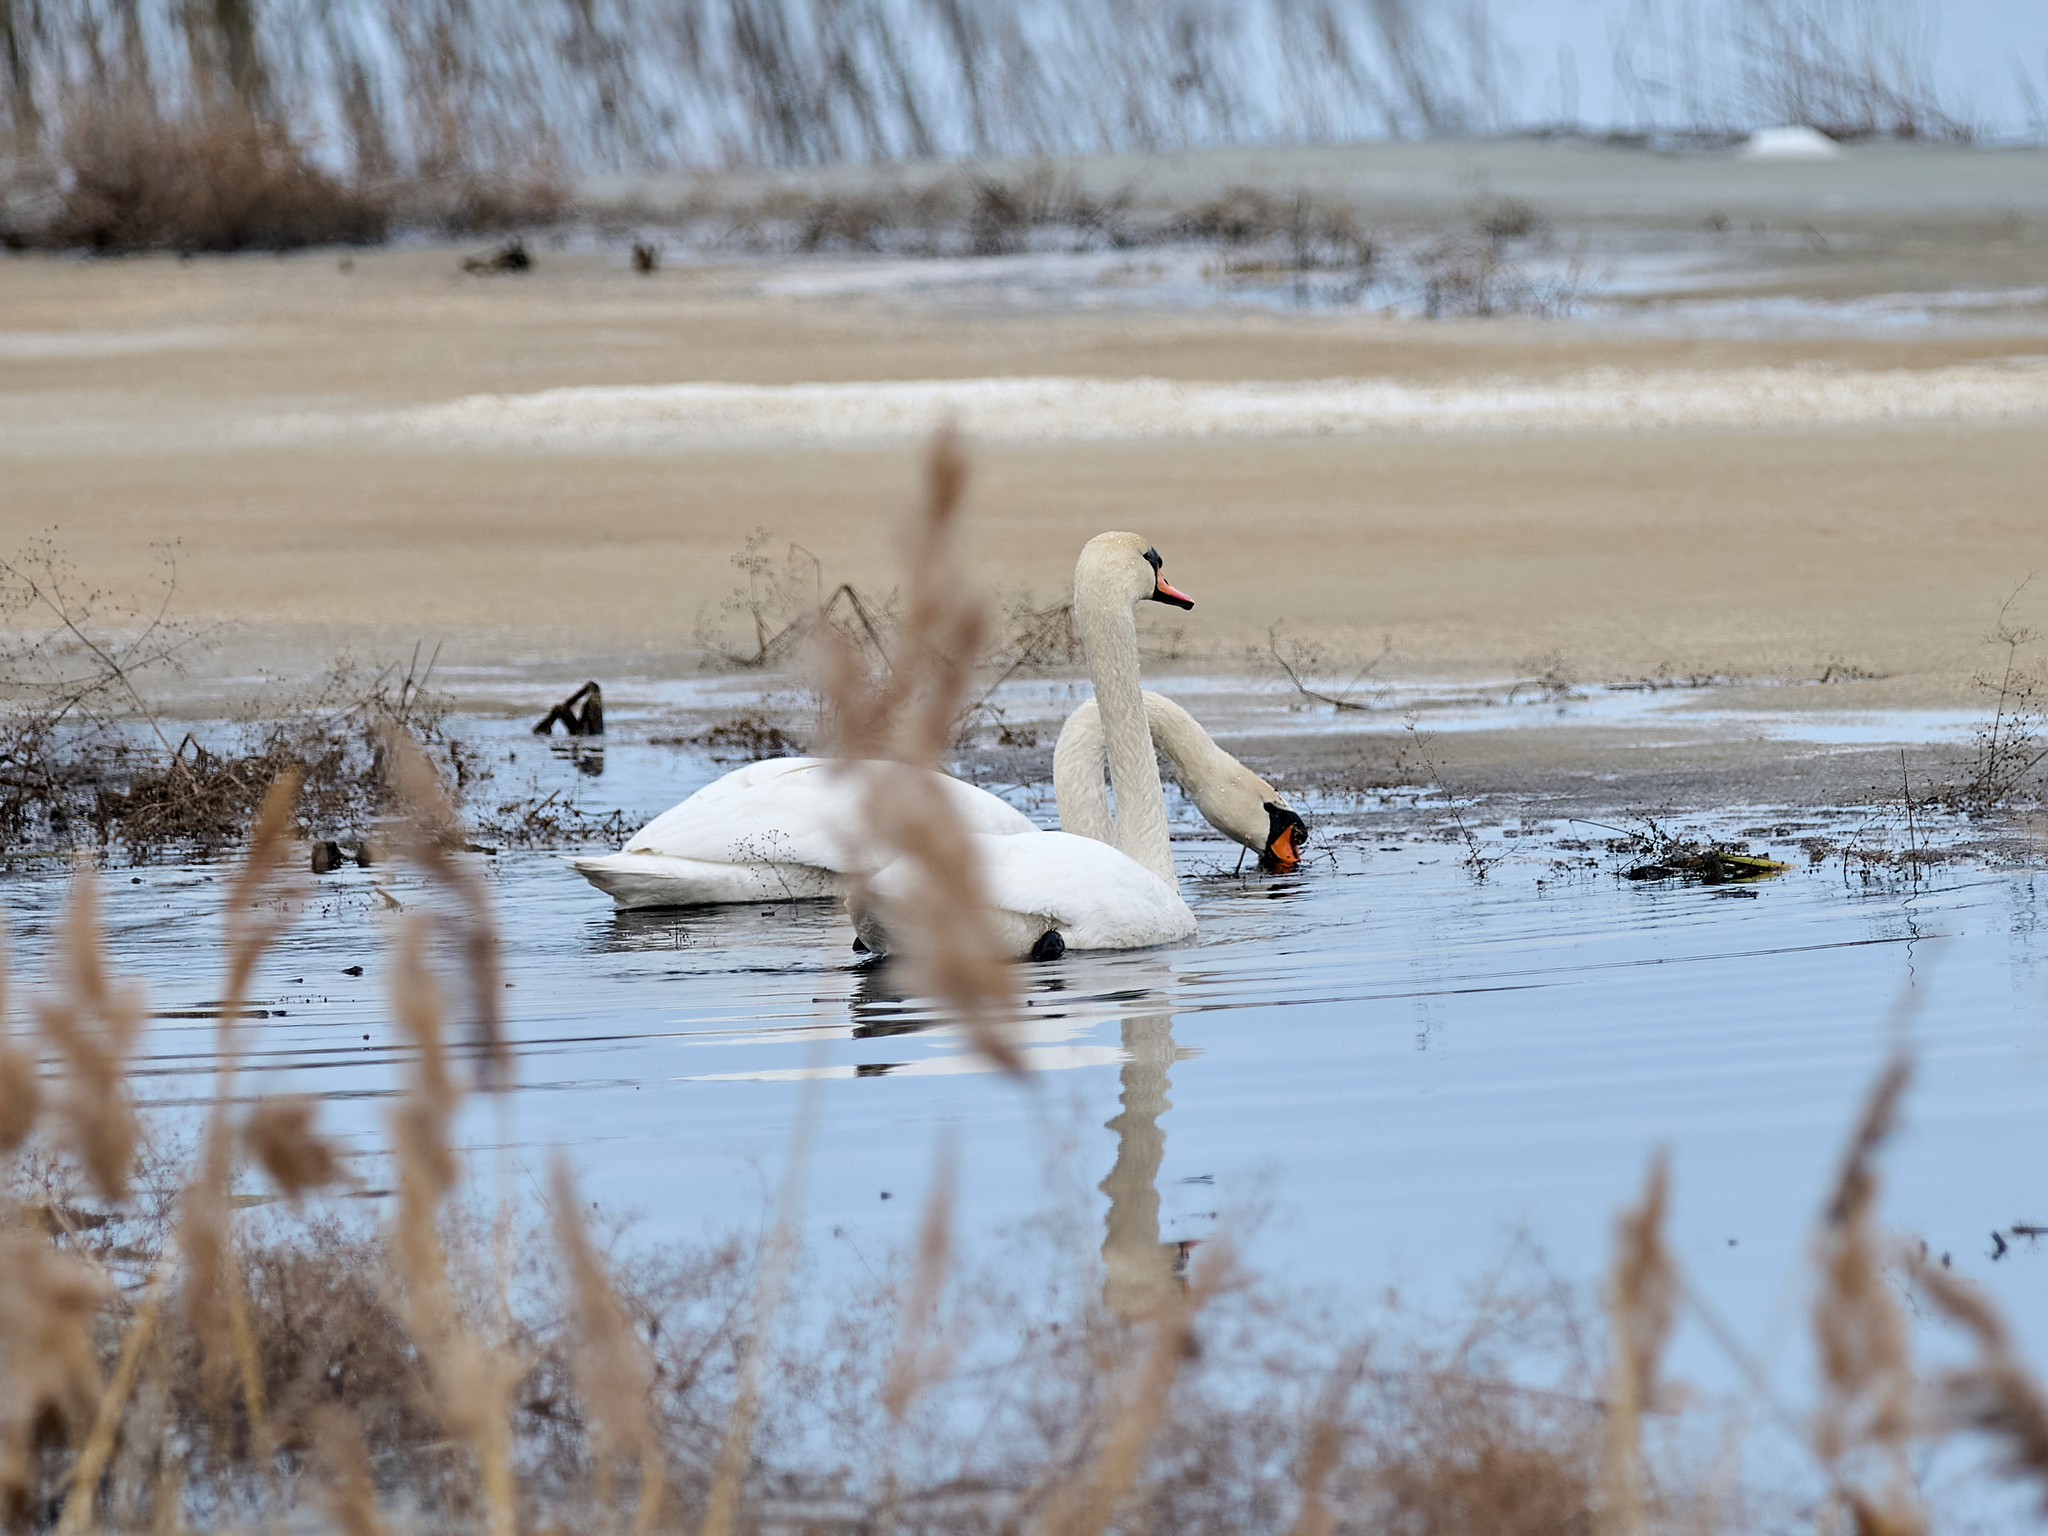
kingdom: Animalia
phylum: Chordata
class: Aves
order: Anseriformes
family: Anatidae
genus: Cygnus
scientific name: Cygnus olor
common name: Mute swan
